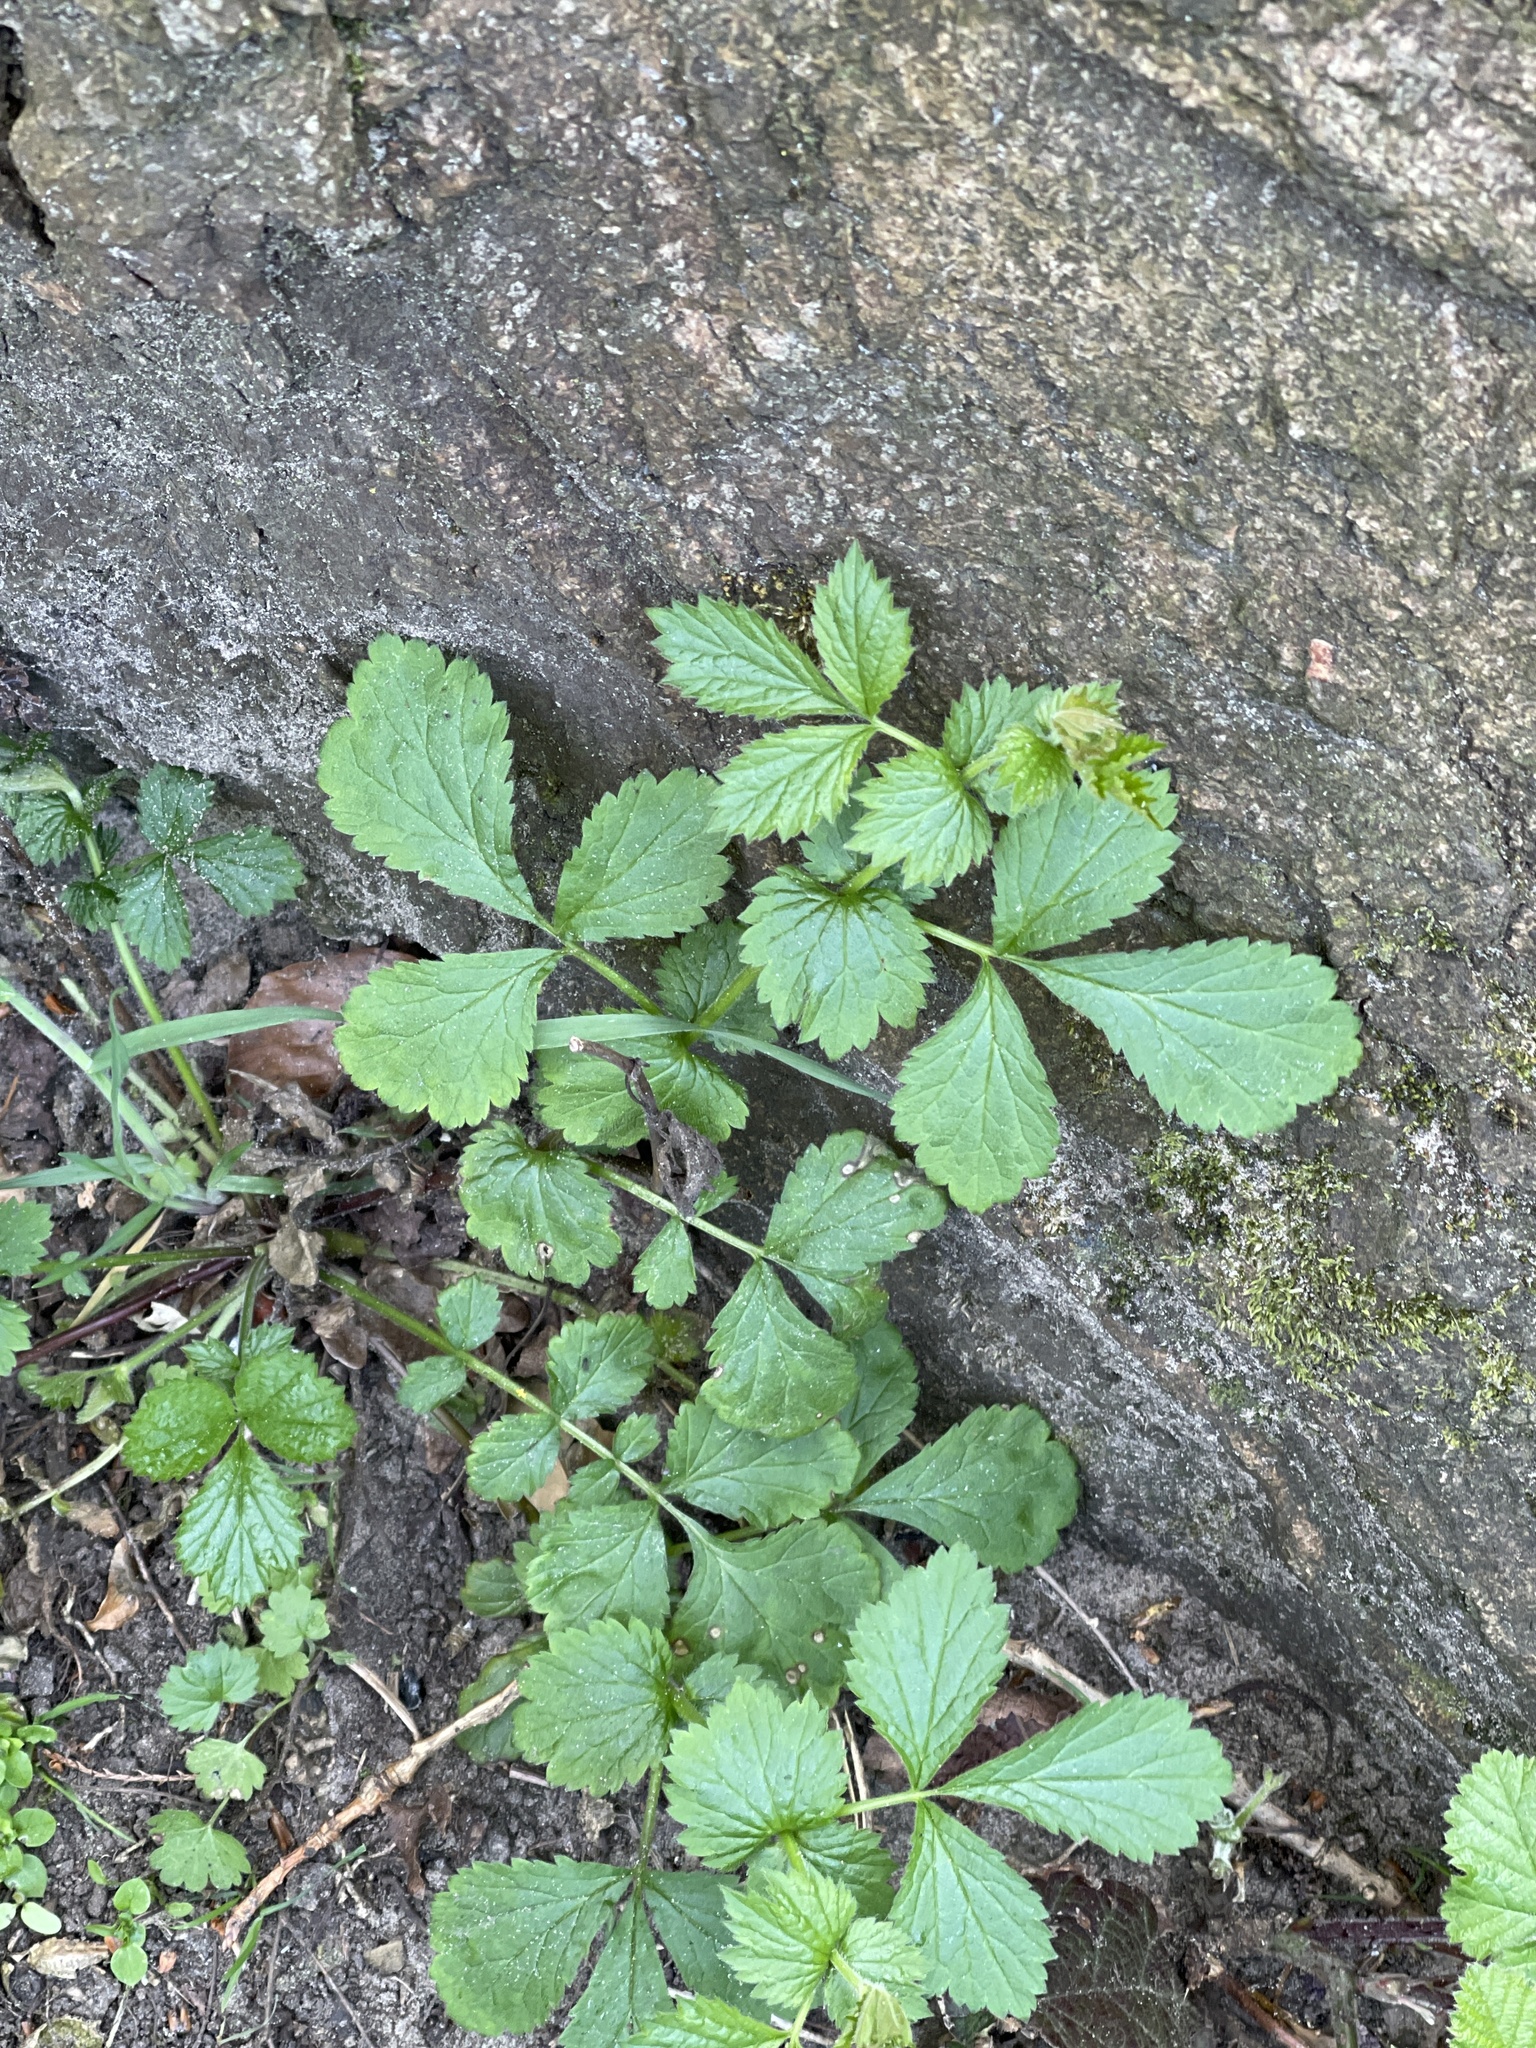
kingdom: Plantae
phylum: Tracheophyta
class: Magnoliopsida
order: Rosales
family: Rosaceae
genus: Geum
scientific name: Geum urbanum
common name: Wood avens
